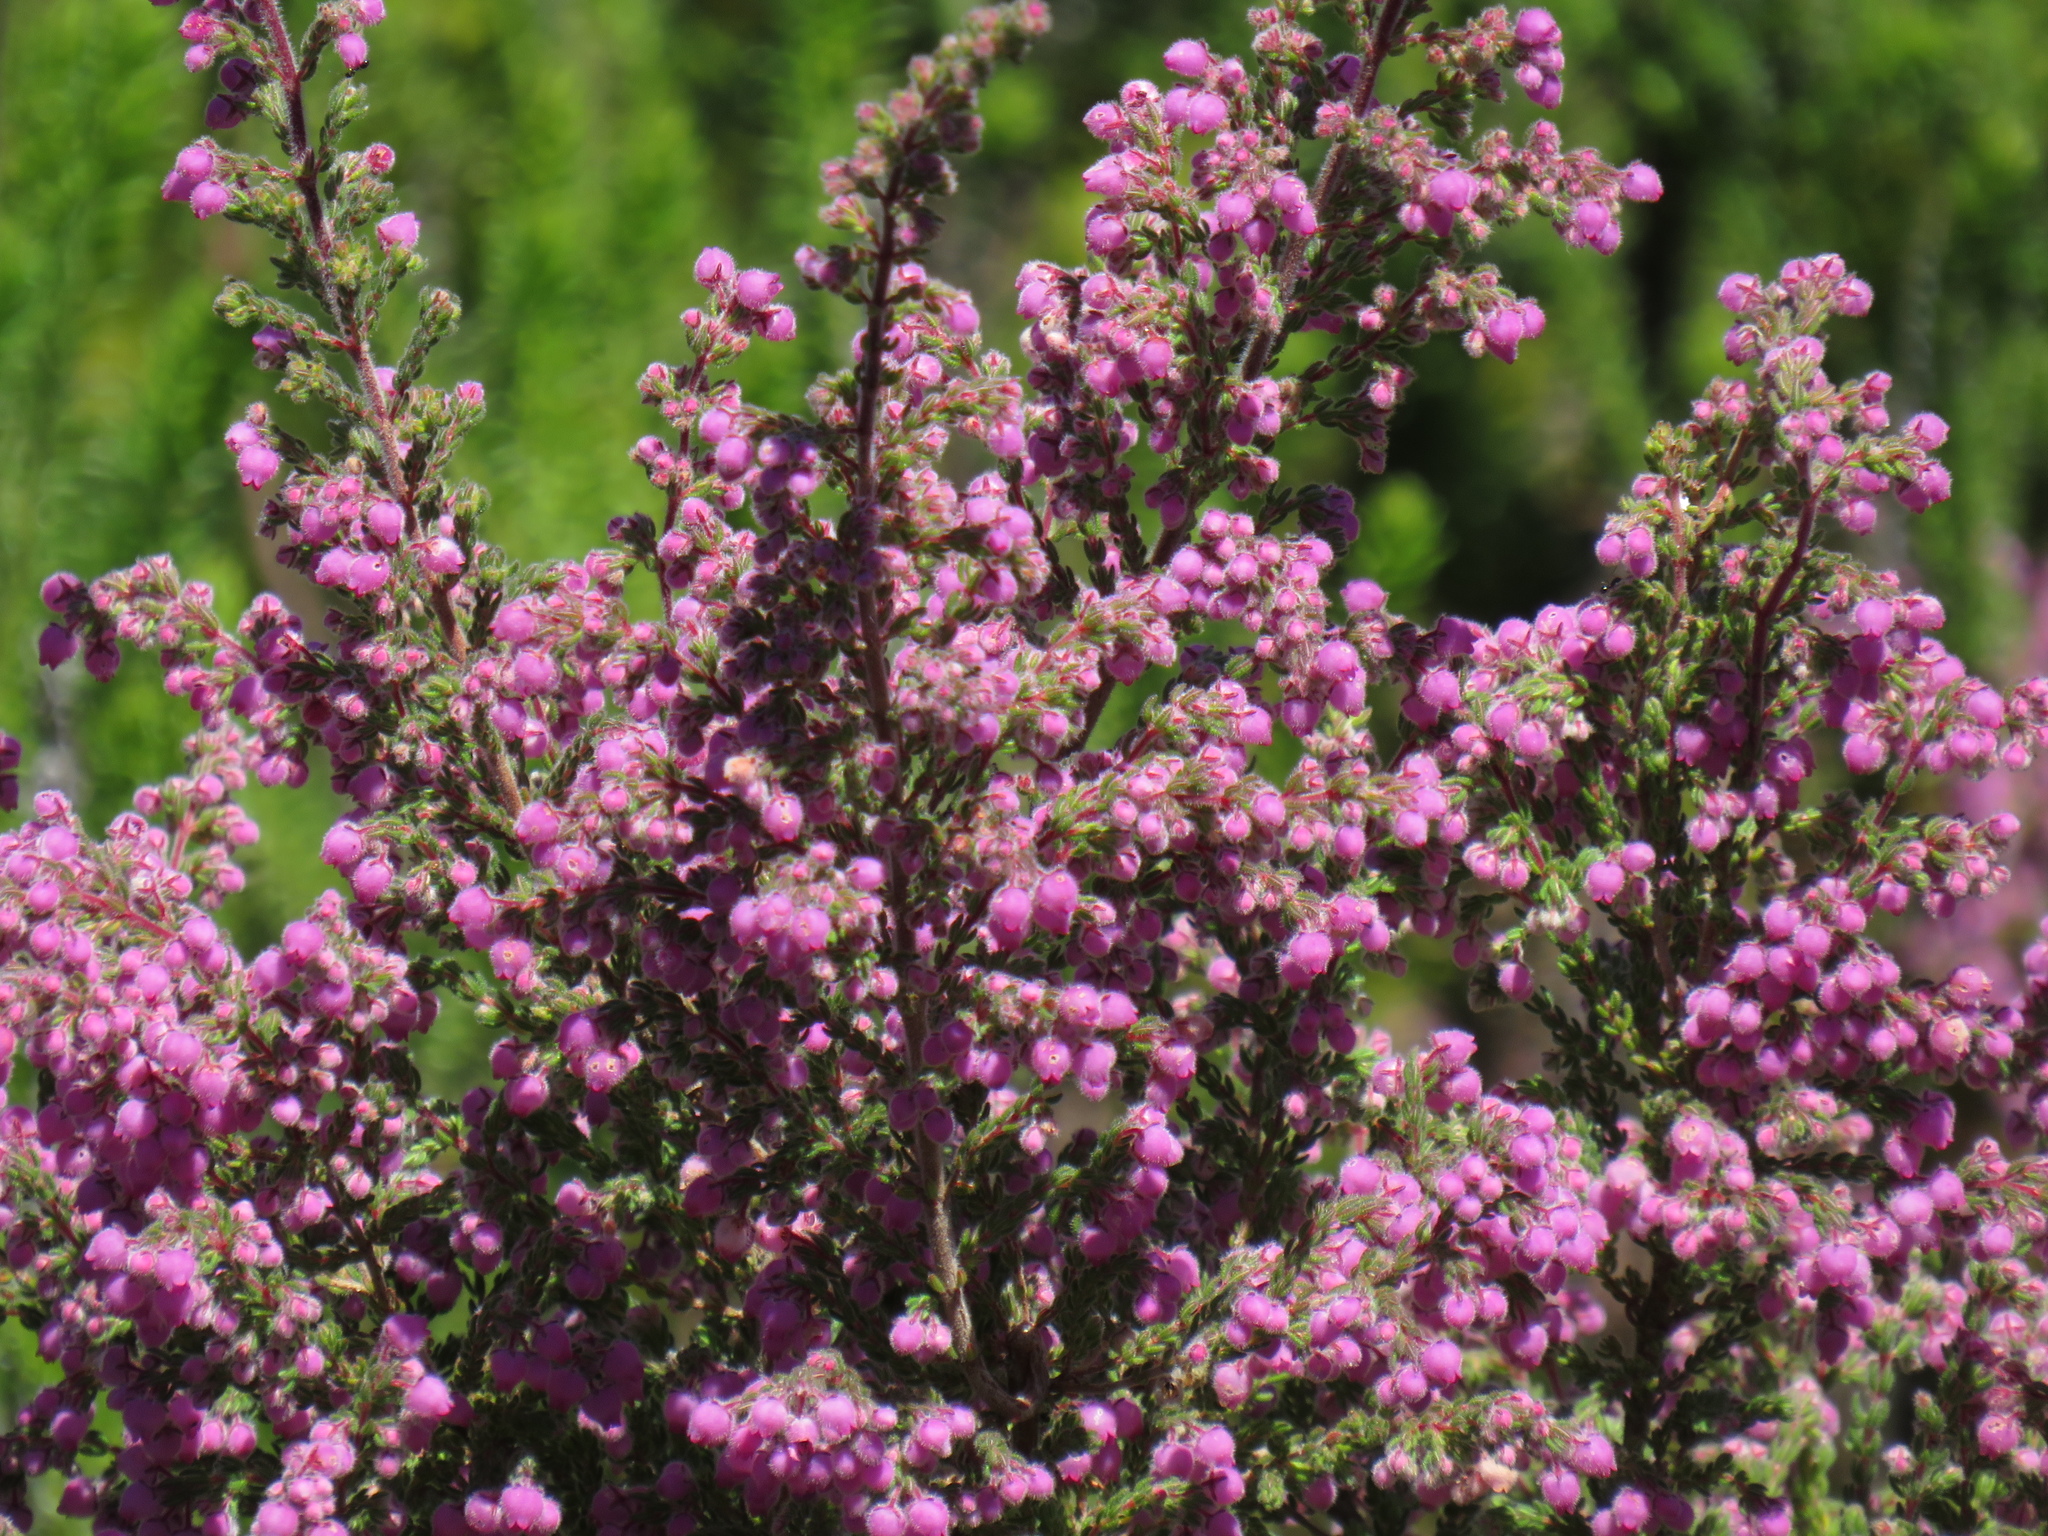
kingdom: Plantae
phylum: Tracheophyta
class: Magnoliopsida
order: Ericales
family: Ericaceae
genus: Erica
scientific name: Erica hirtiflora
